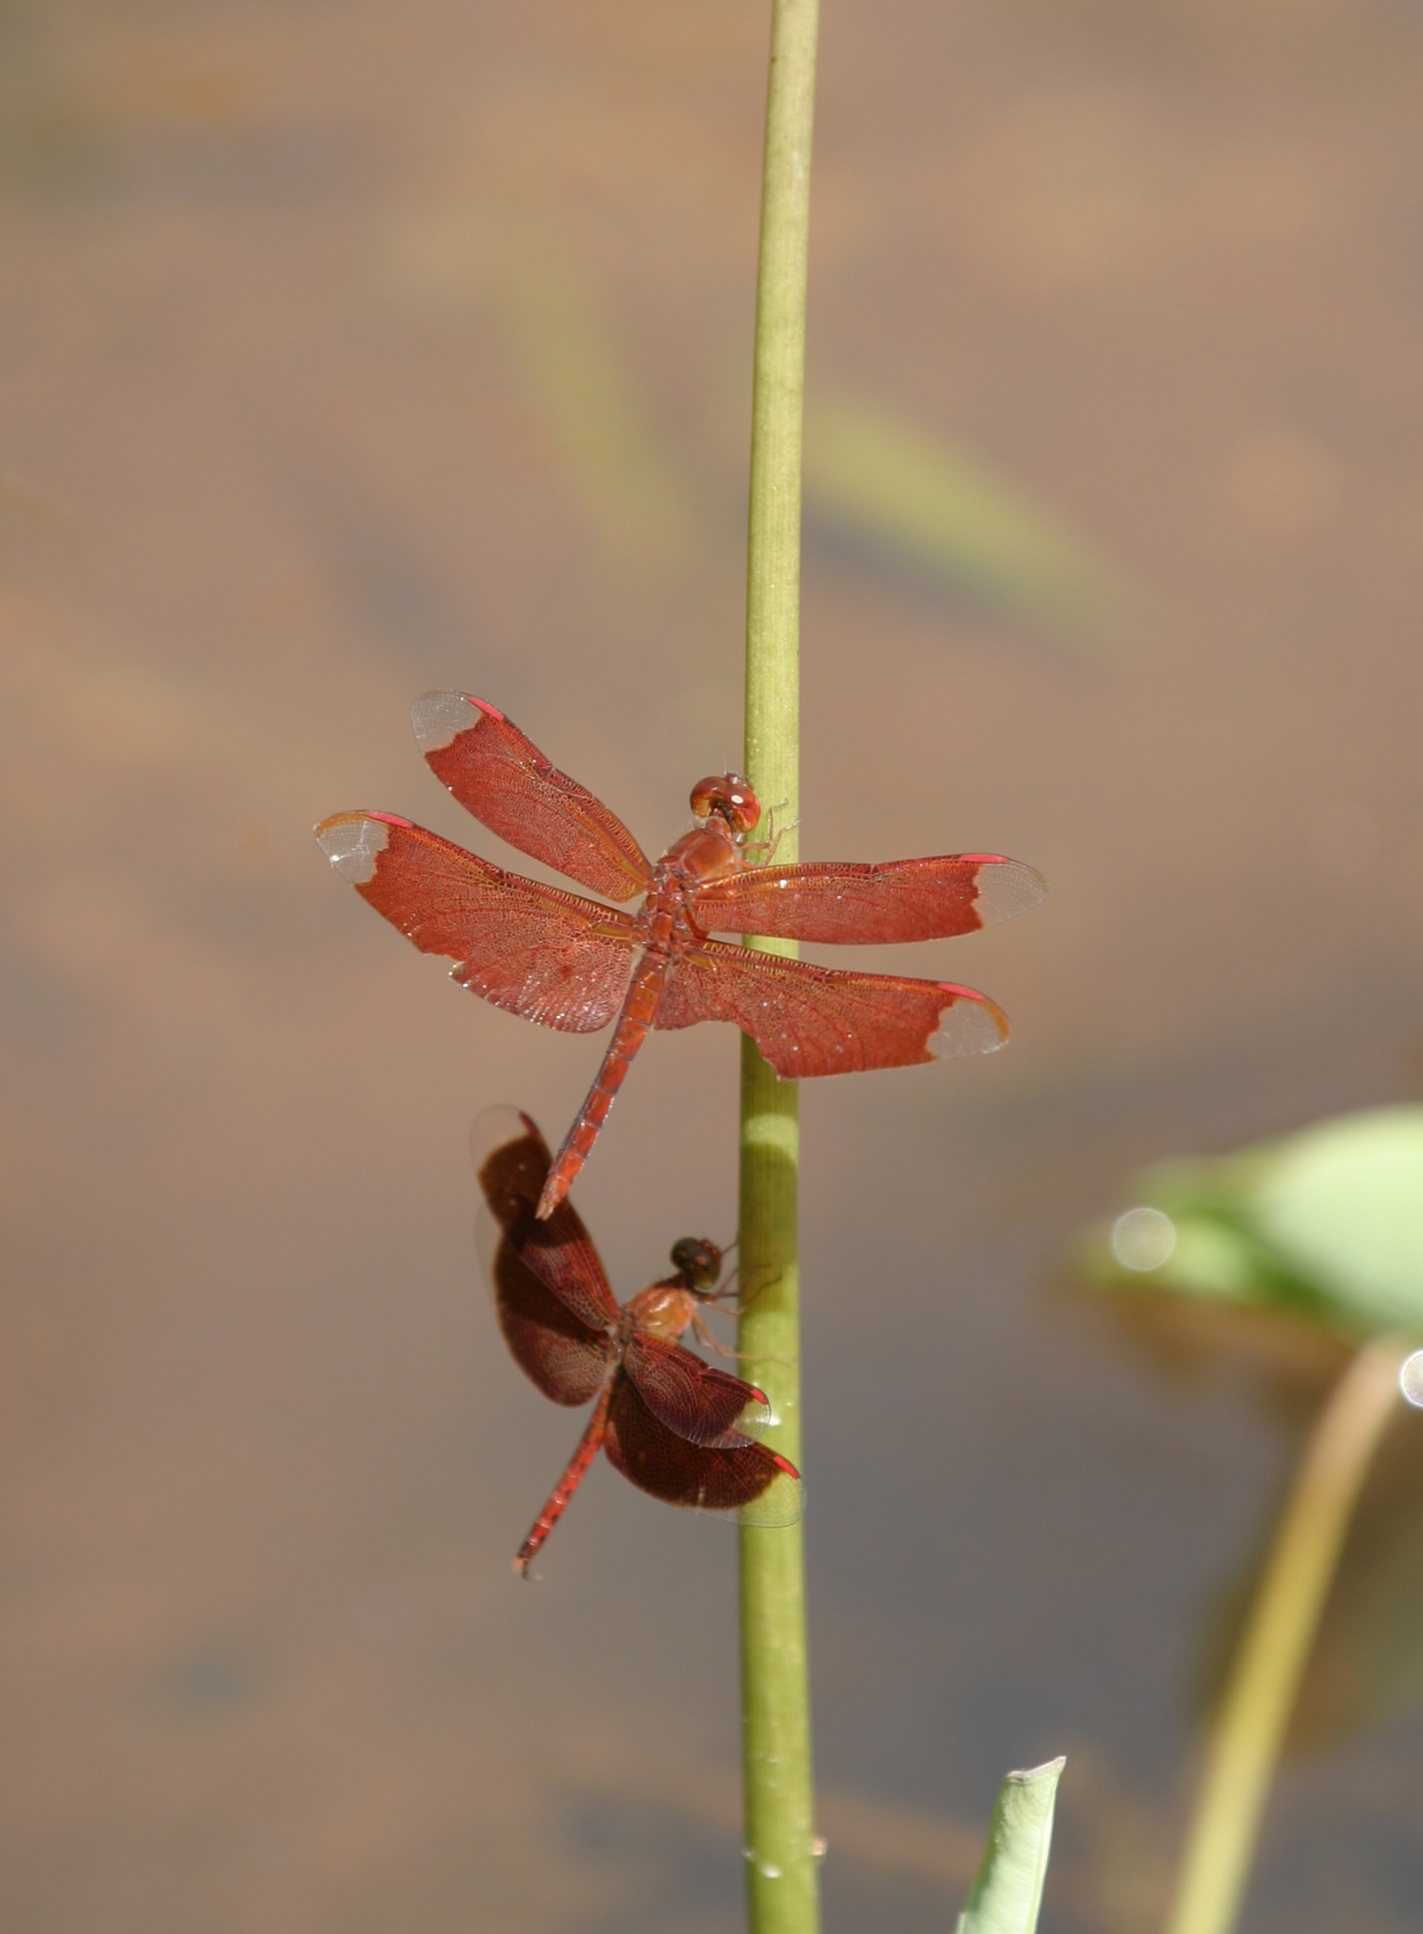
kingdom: Animalia
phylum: Arthropoda
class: Insecta
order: Odonata
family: Libellulidae
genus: Neurothemis
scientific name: Neurothemis fulvia
